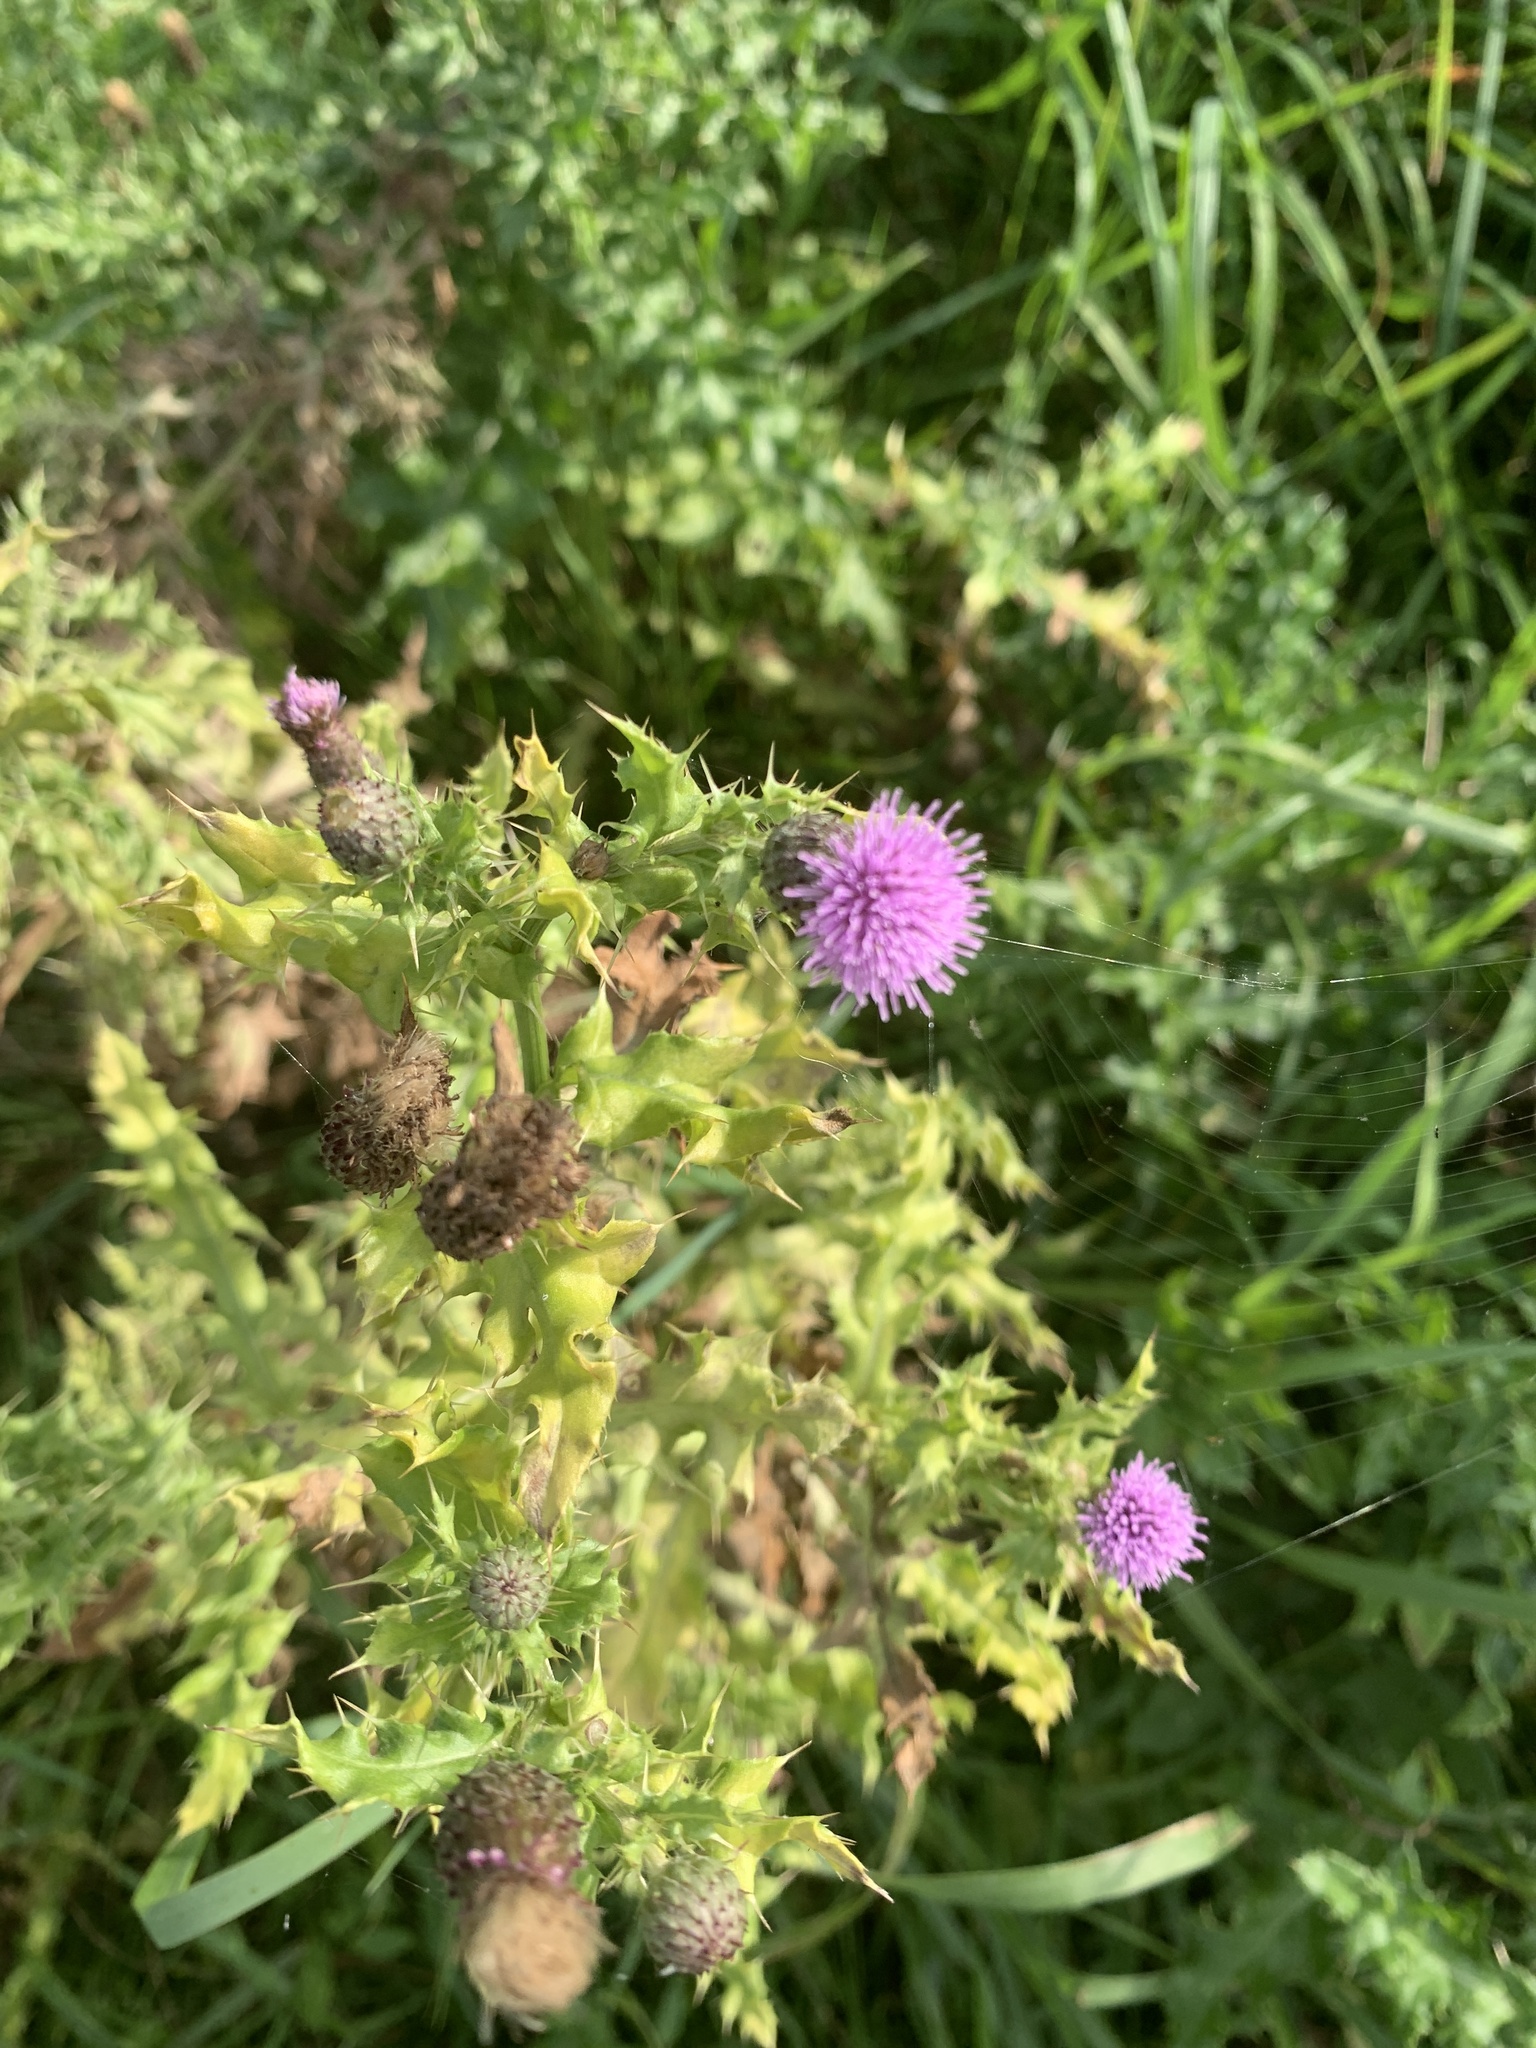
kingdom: Plantae
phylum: Tracheophyta
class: Magnoliopsida
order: Asterales
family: Asteraceae
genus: Cirsium
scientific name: Cirsium arvense
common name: Creeping thistle
